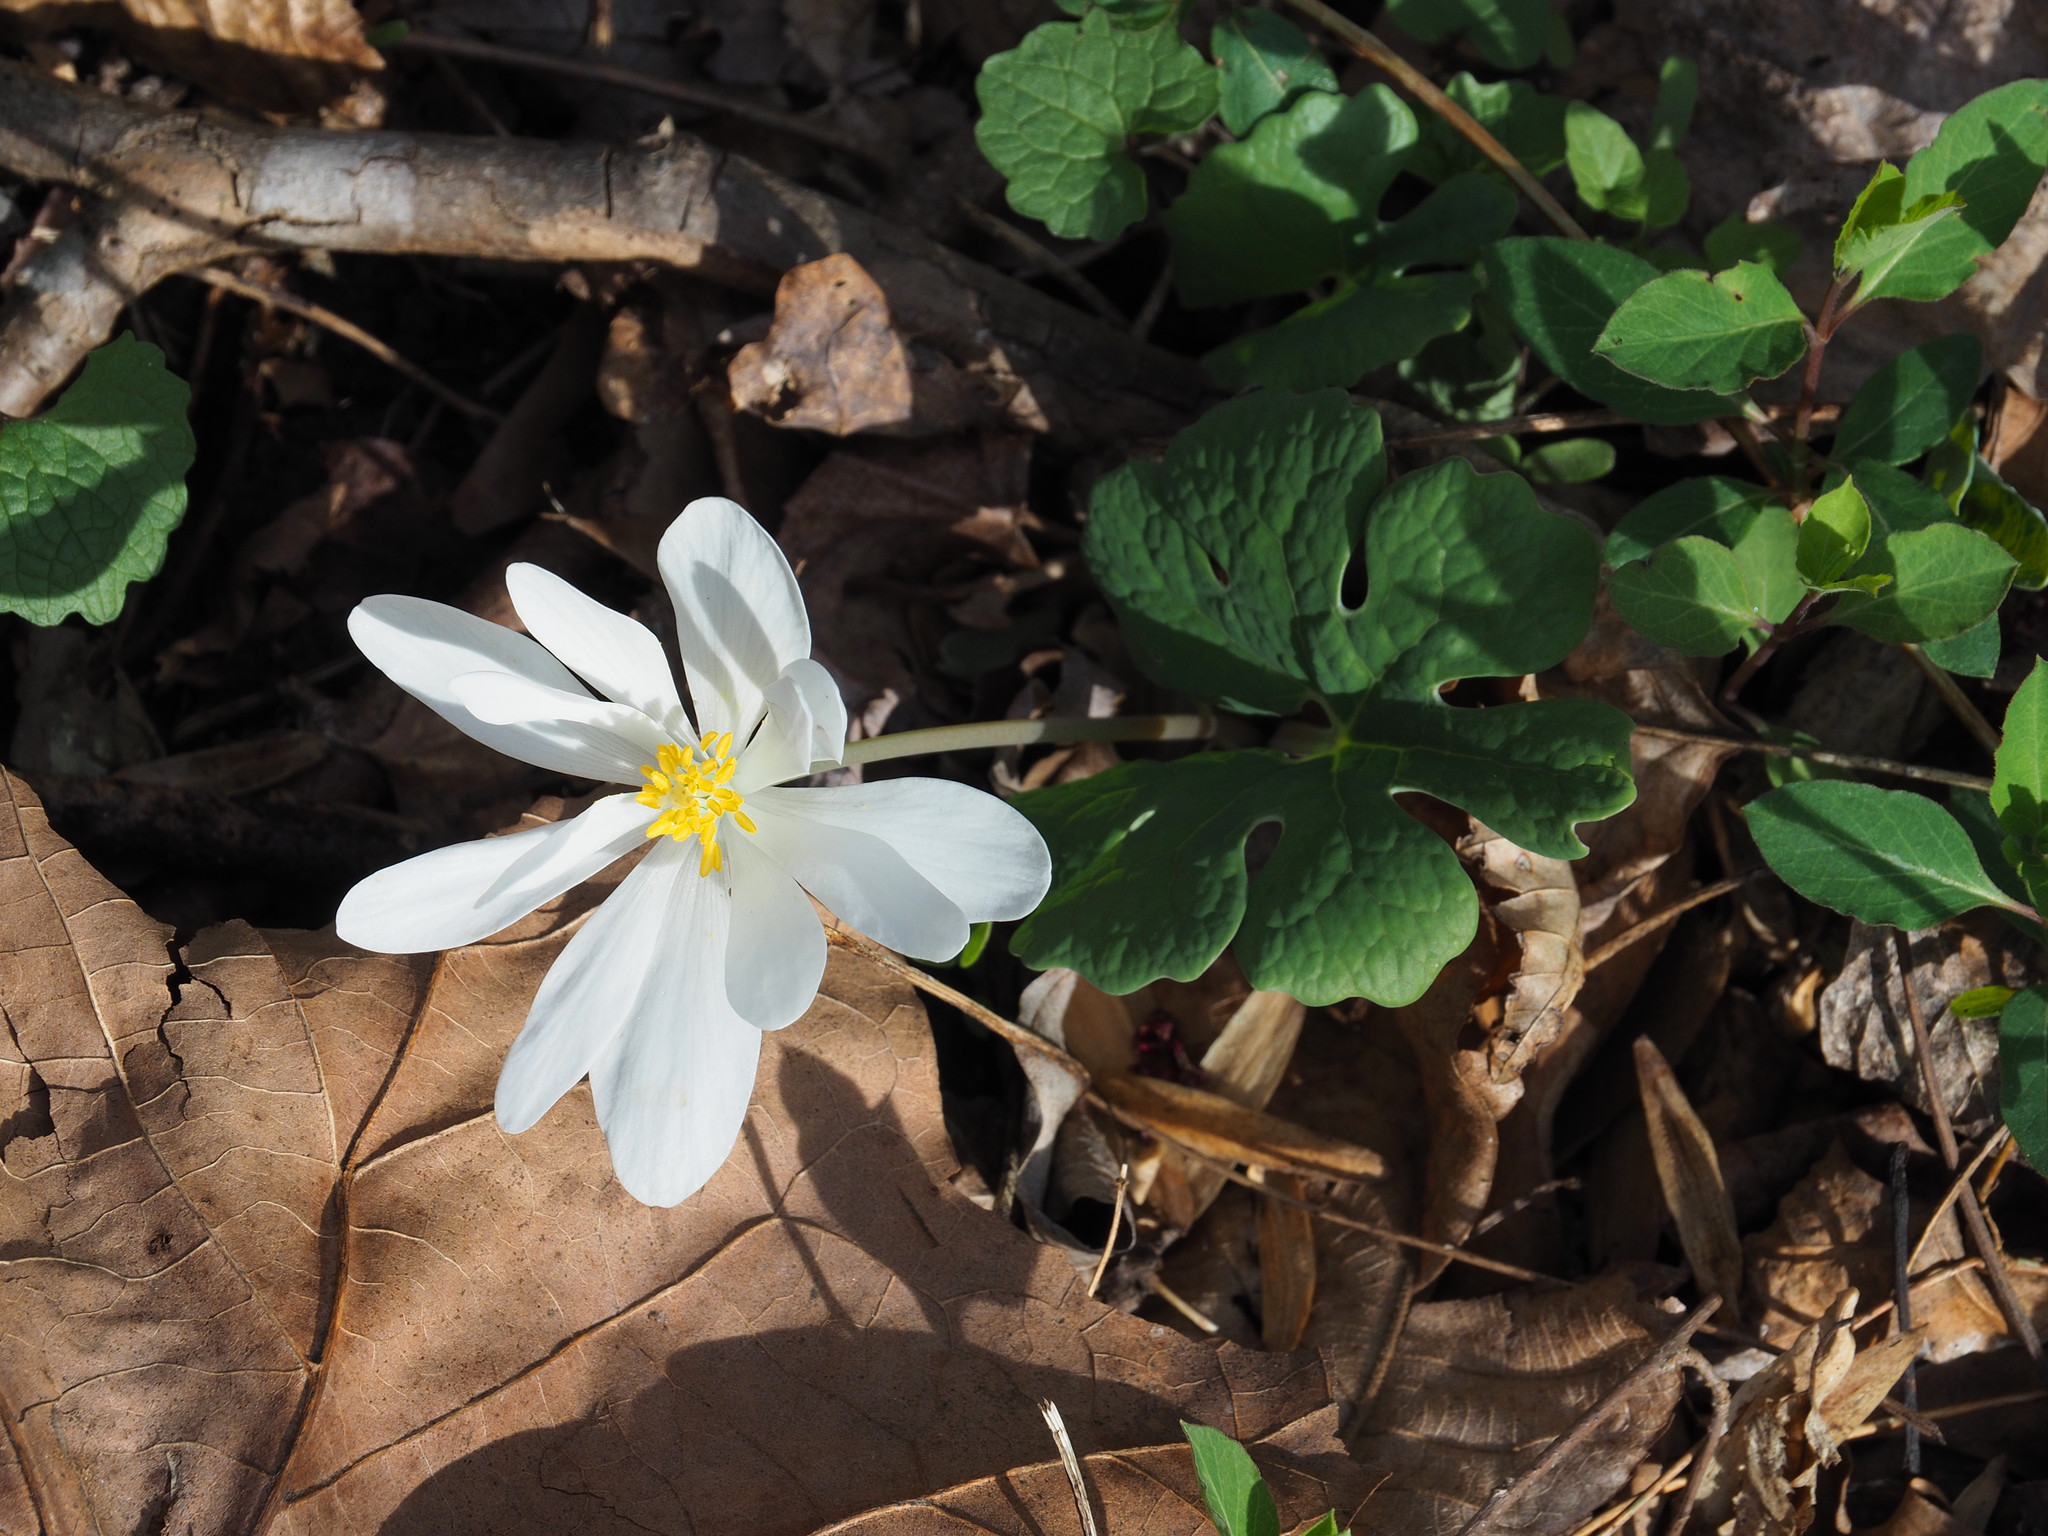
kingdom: Plantae
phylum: Tracheophyta
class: Magnoliopsida
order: Ranunculales
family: Papaveraceae
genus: Sanguinaria
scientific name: Sanguinaria canadensis
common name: Bloodroot
